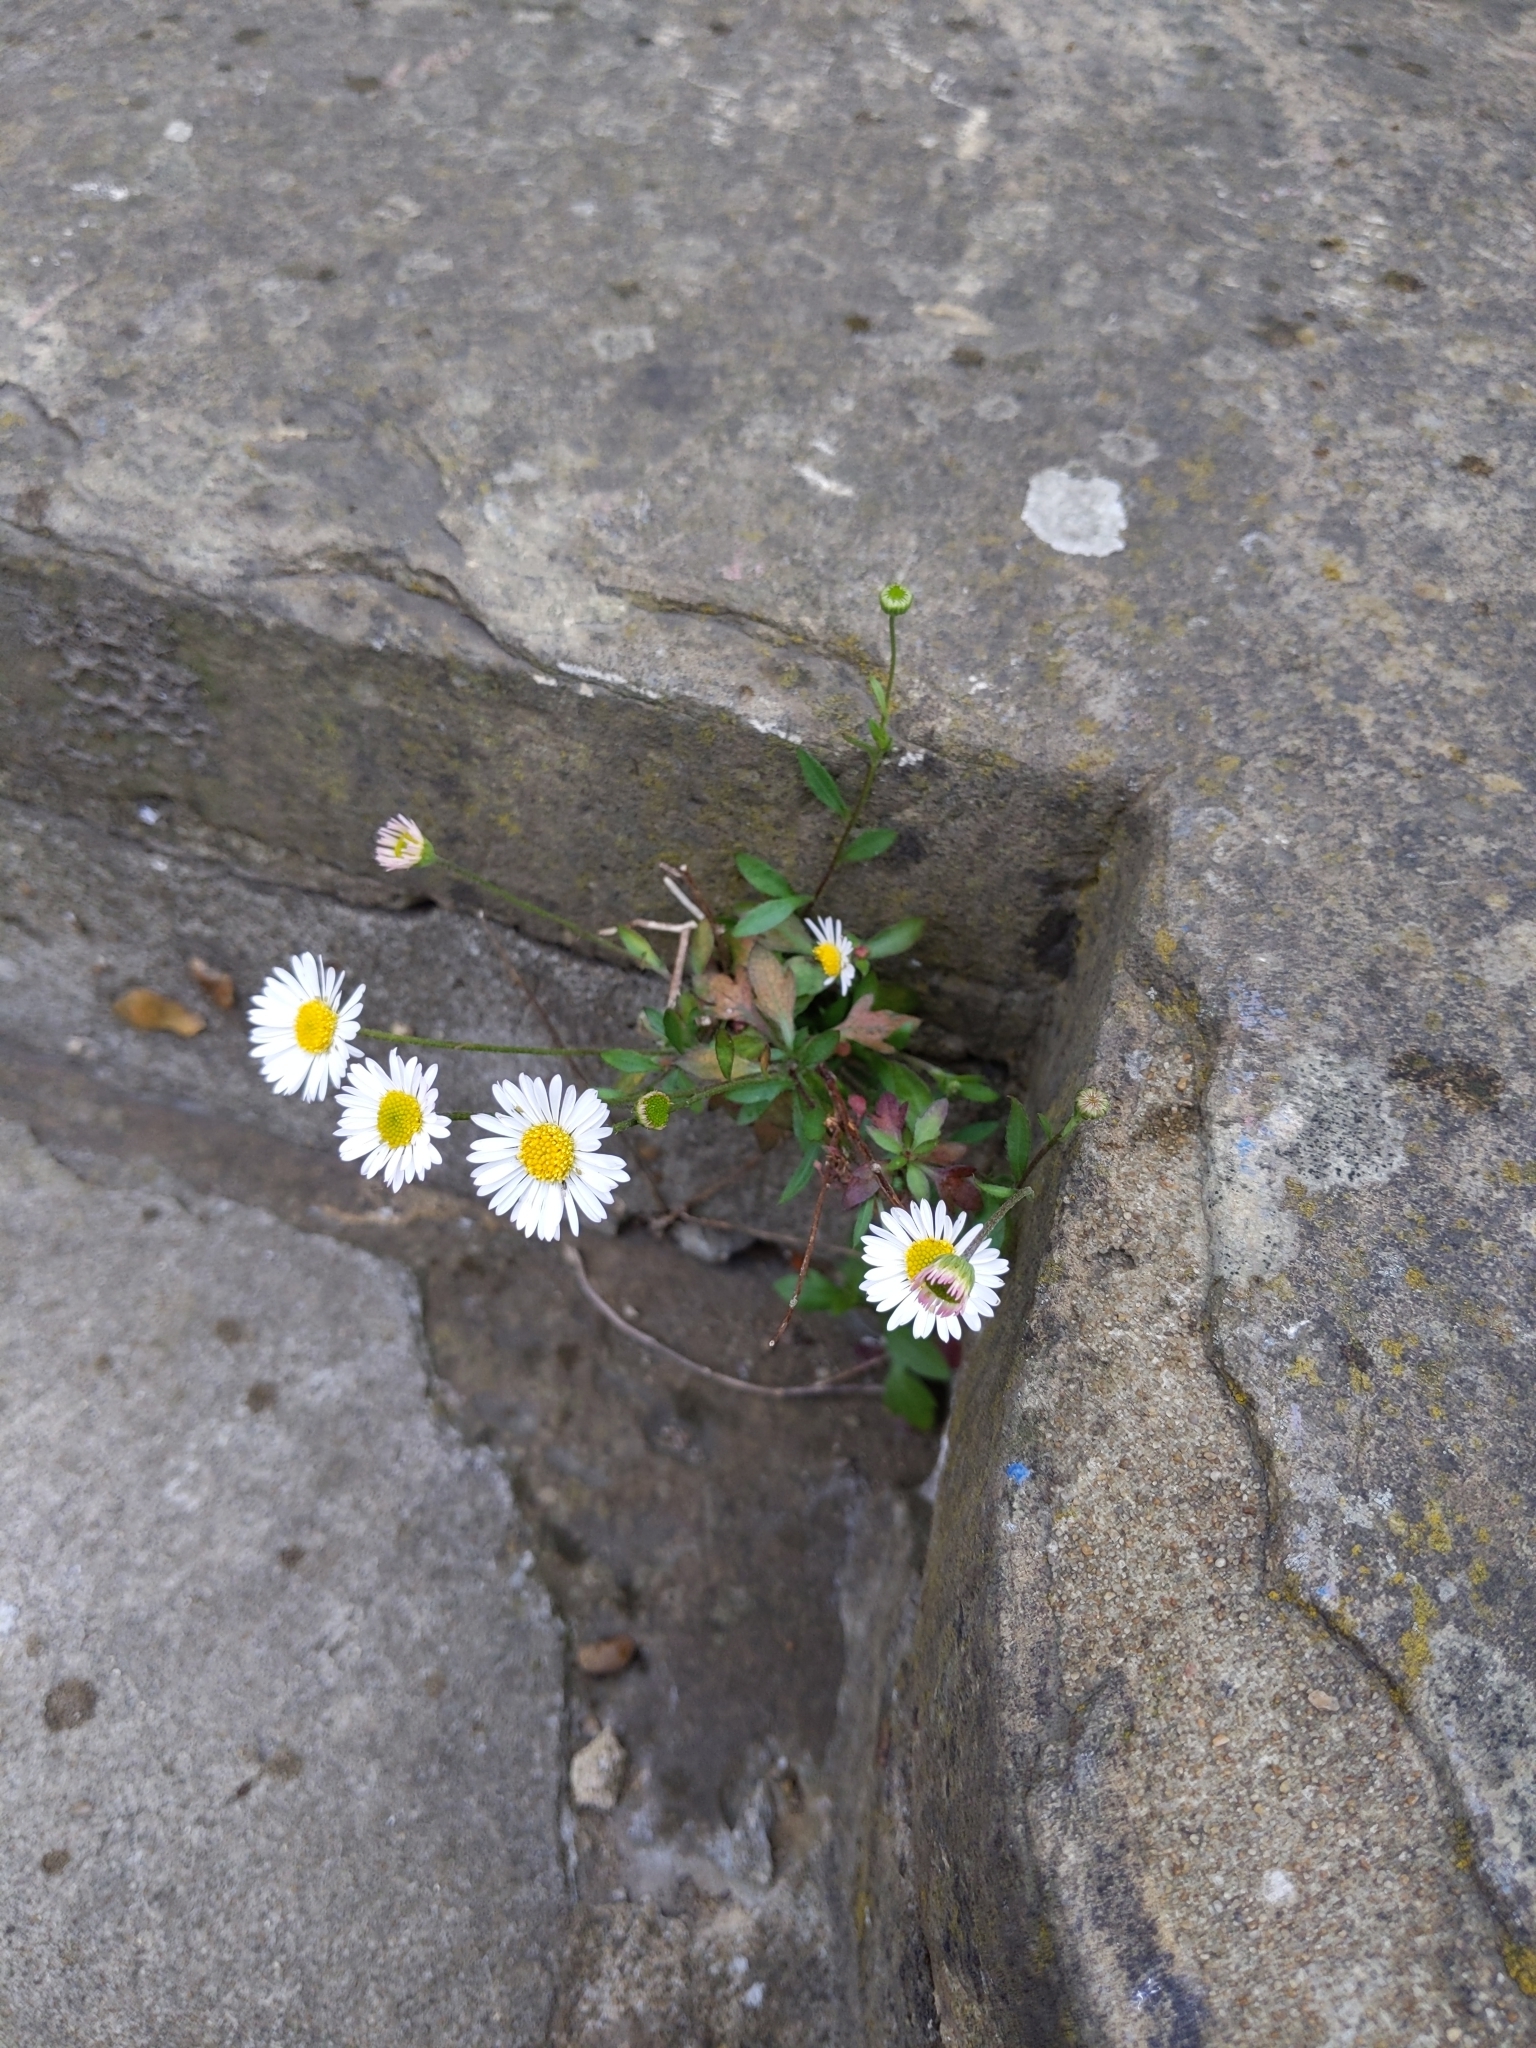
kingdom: Plantae
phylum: Tracheophyta
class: Magnoliopsida
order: Asterales
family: Asteraceae
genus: Erigeron
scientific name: Erigeron karvinskianus
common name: Mexican fleabane
